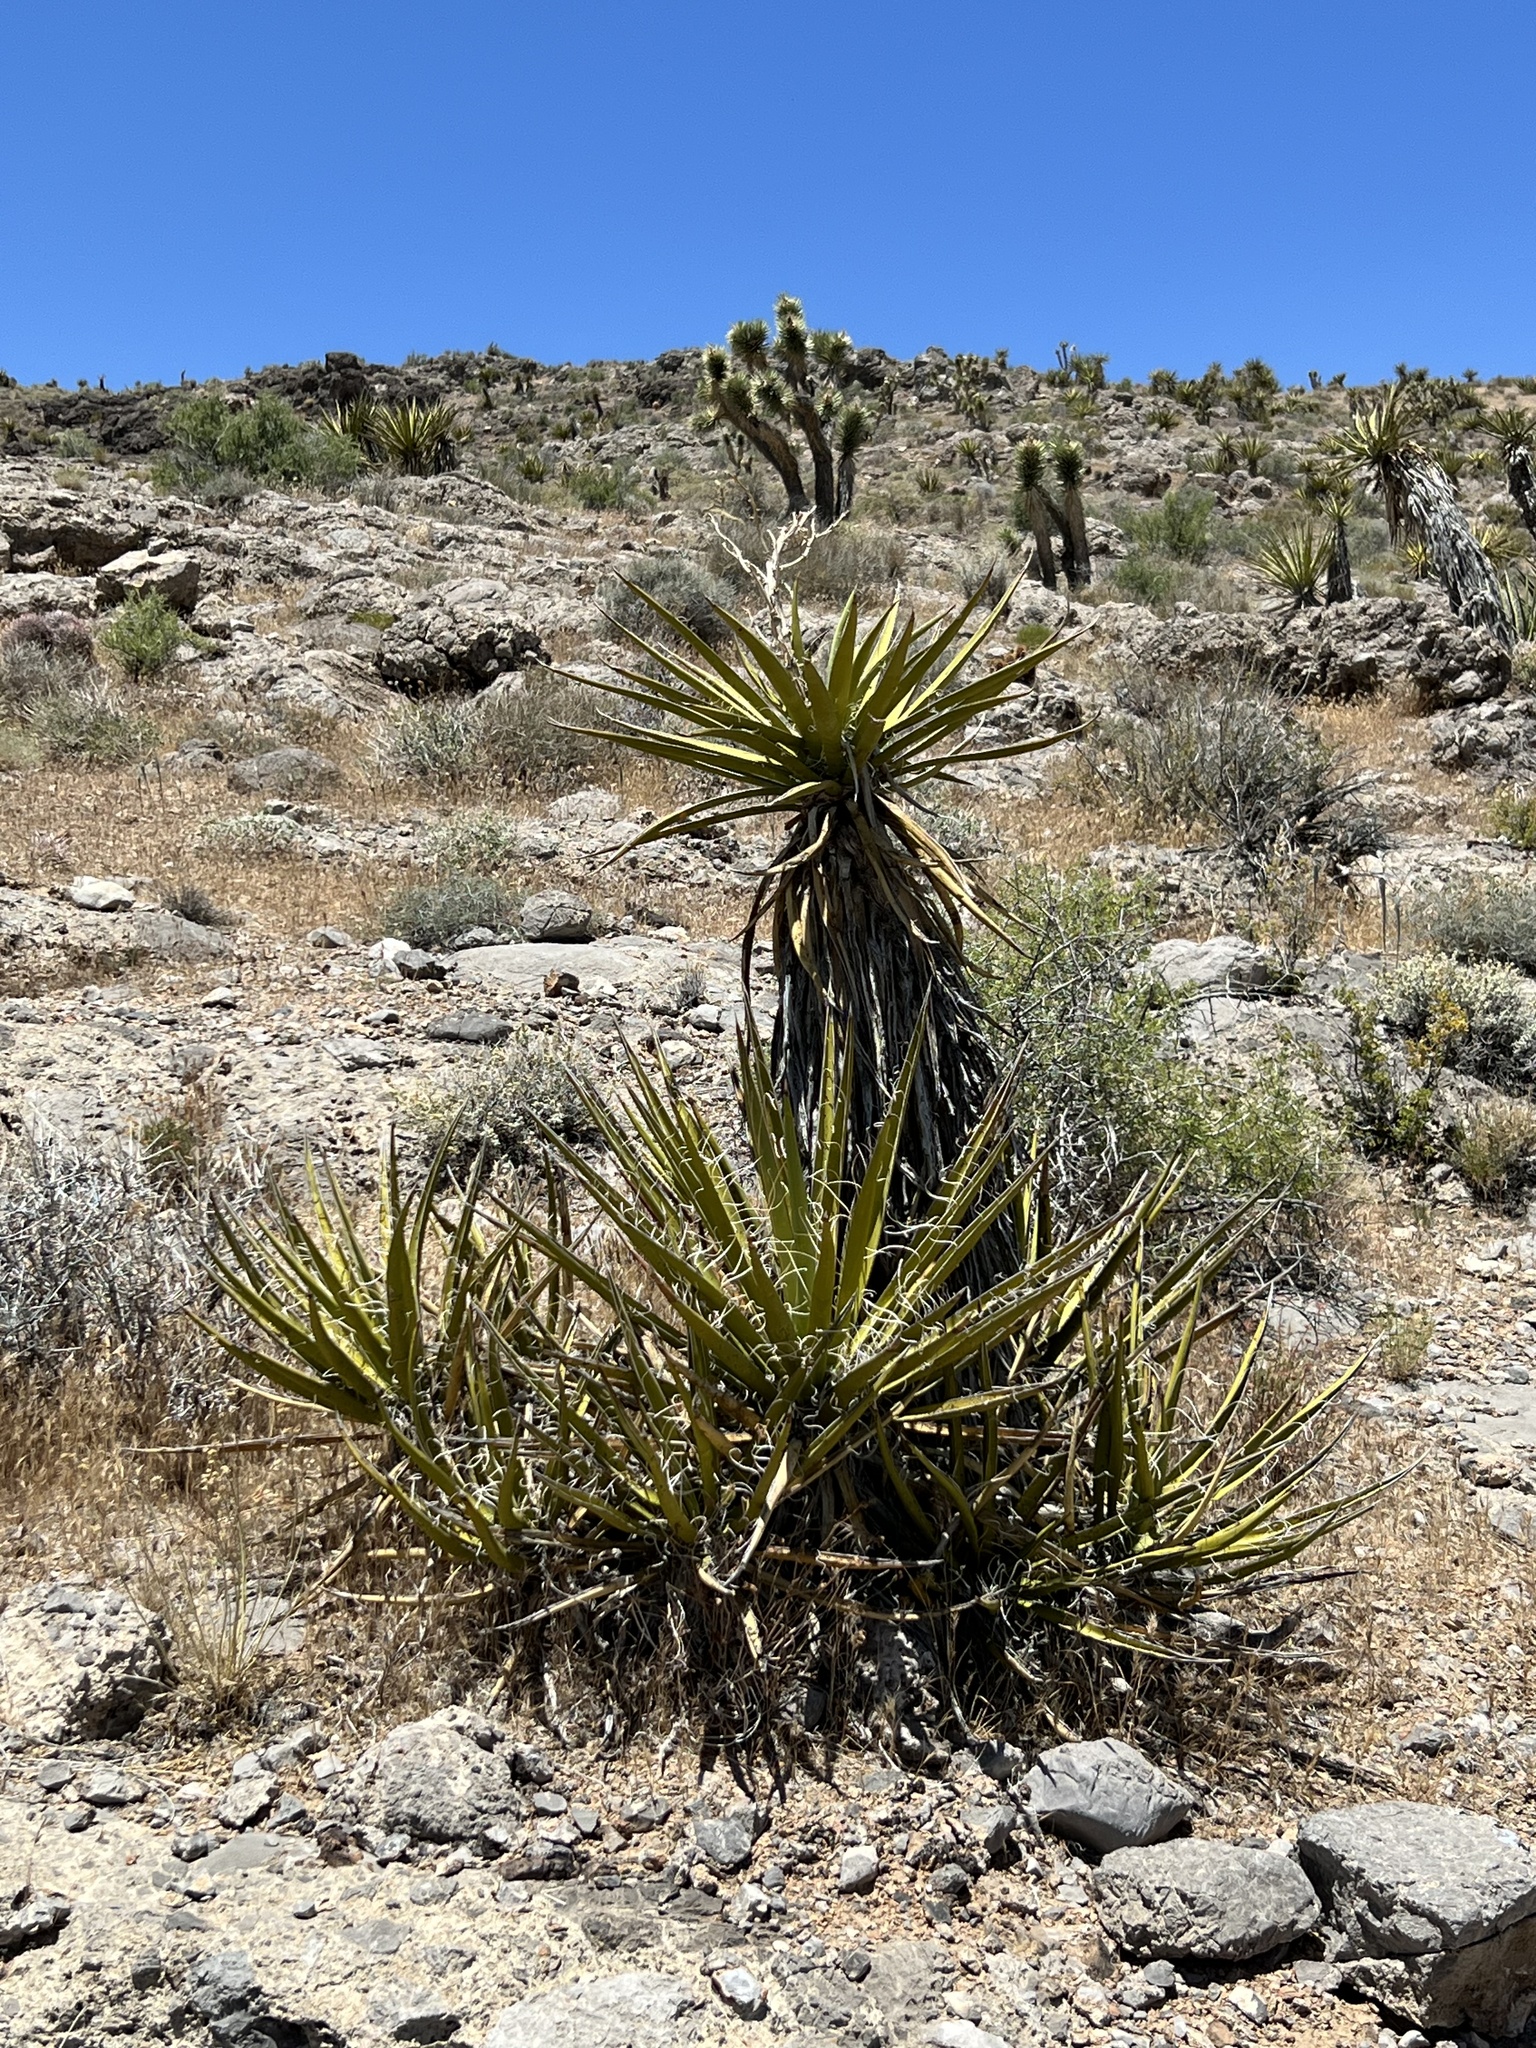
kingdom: Plantae
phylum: Tracheophyta
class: Liliopsida
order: Asparagales
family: Asparagaceae
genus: Yucca
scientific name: Yucca schidigera
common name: Mojave yucca
